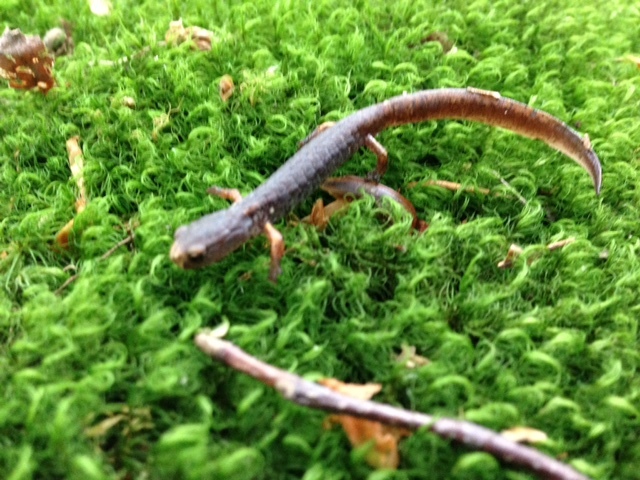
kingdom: Animalia
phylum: Chordata
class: Amphibia
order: Caudata
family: Plethodontidae
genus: Hemidactylium
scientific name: Hemidactylium scutatum
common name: Four-toed salamander
